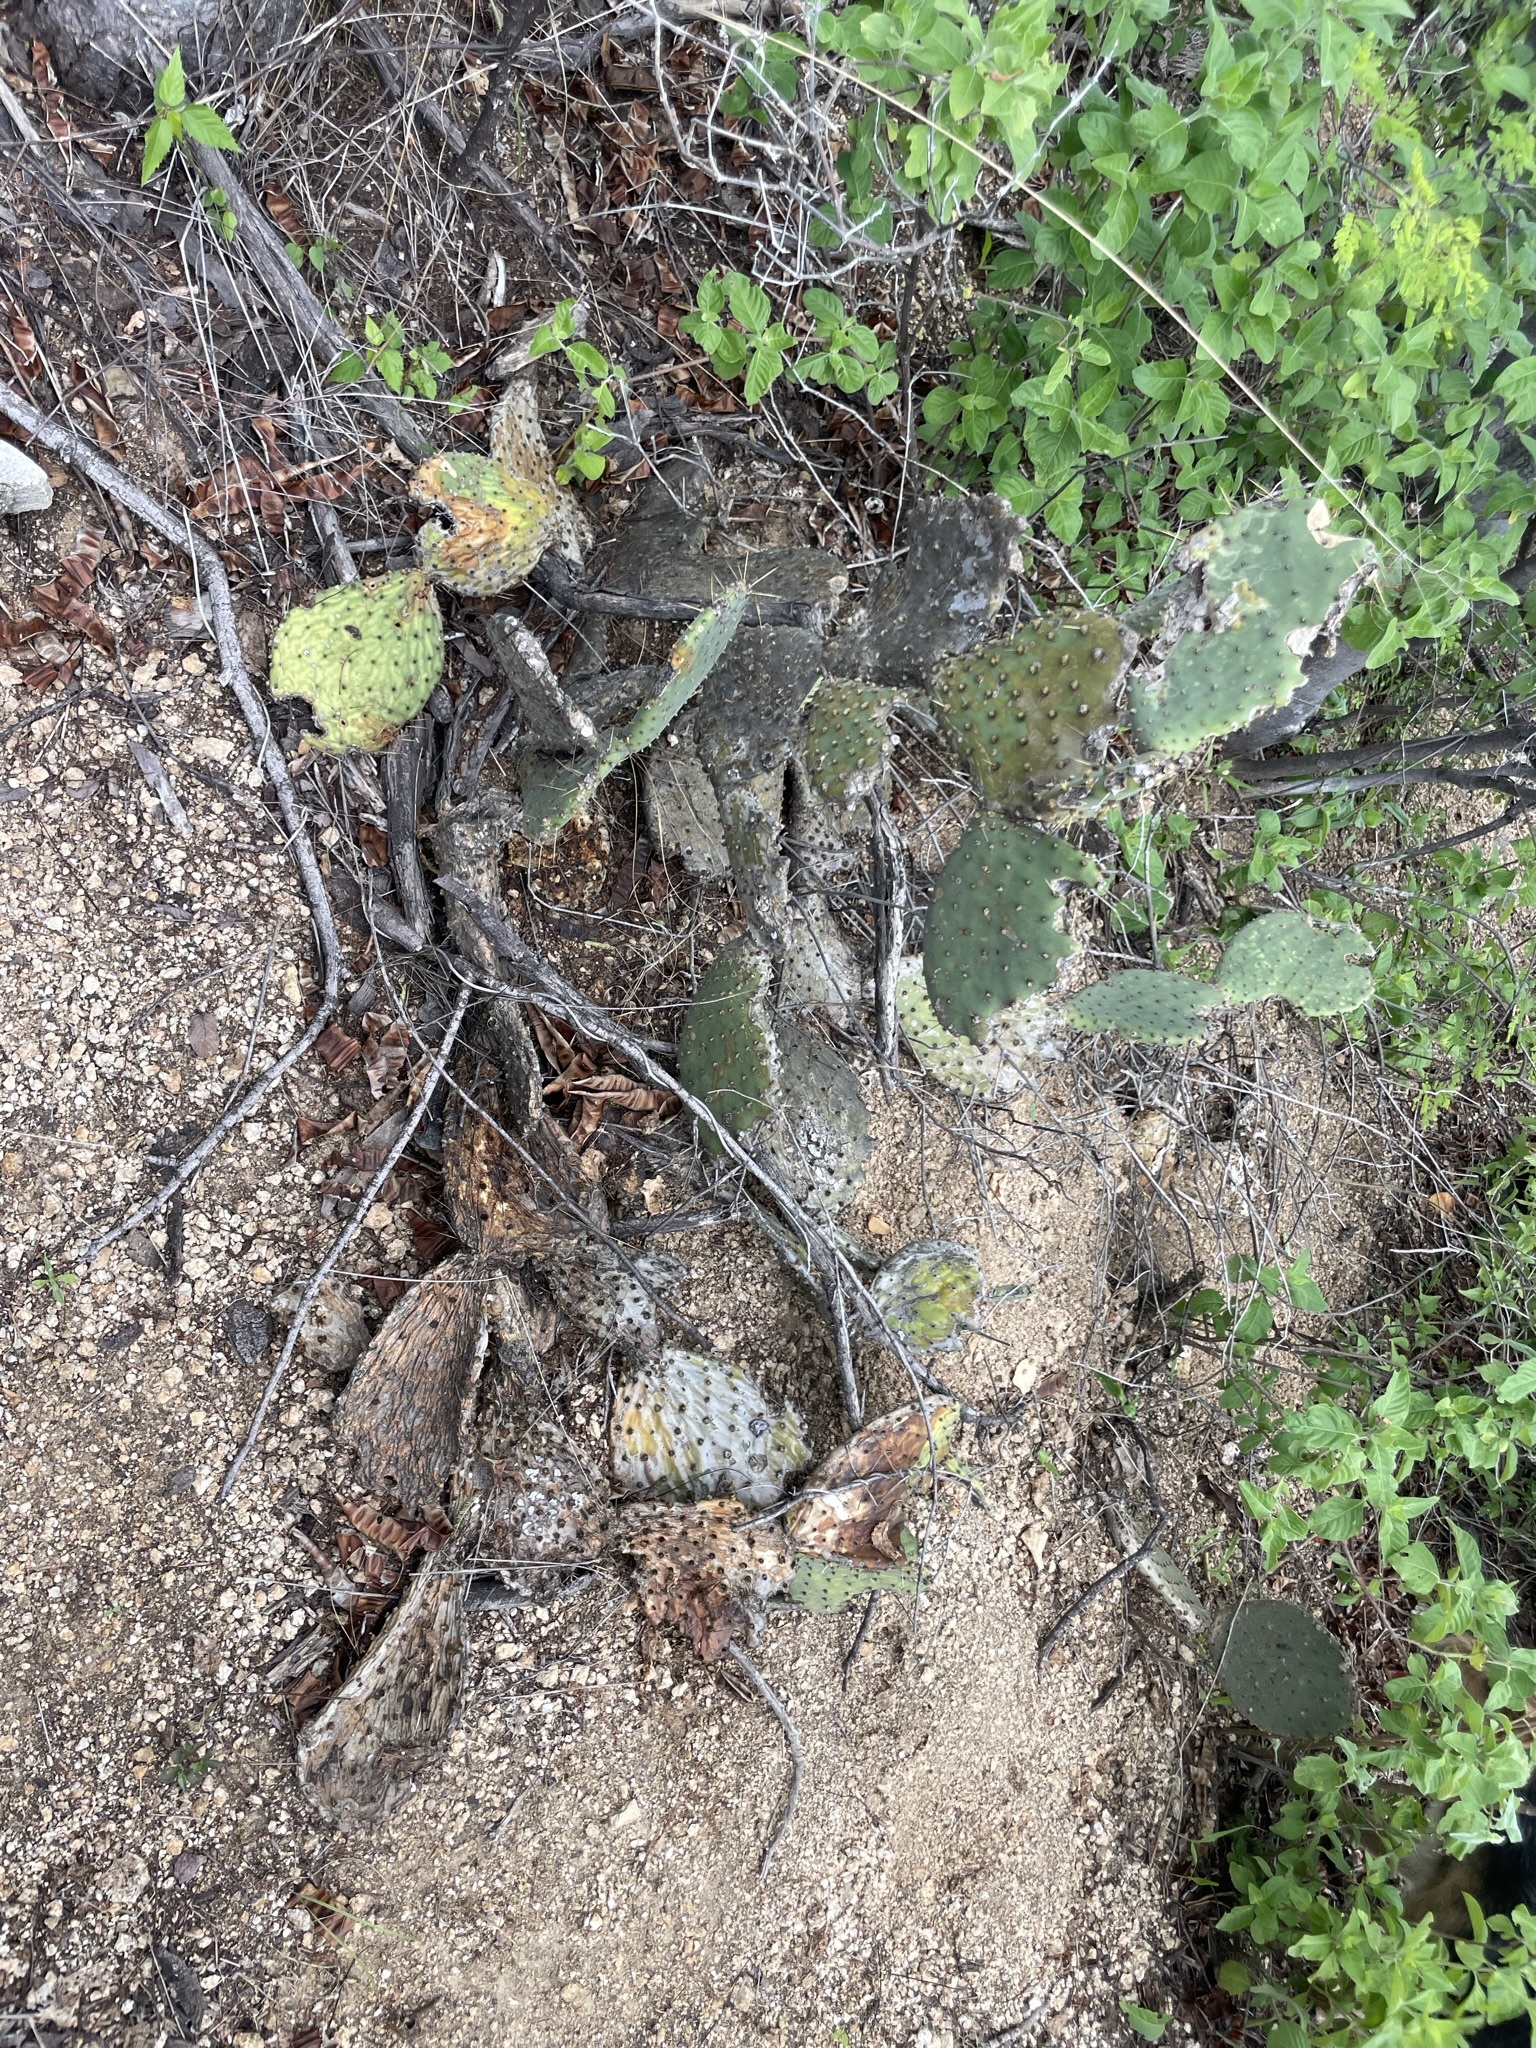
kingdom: Plantae
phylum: Tracheophyta
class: Magnoliopsida
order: Caryophyllales
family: Cactaceae
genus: Opuntia
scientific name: Opuntia caboensis
